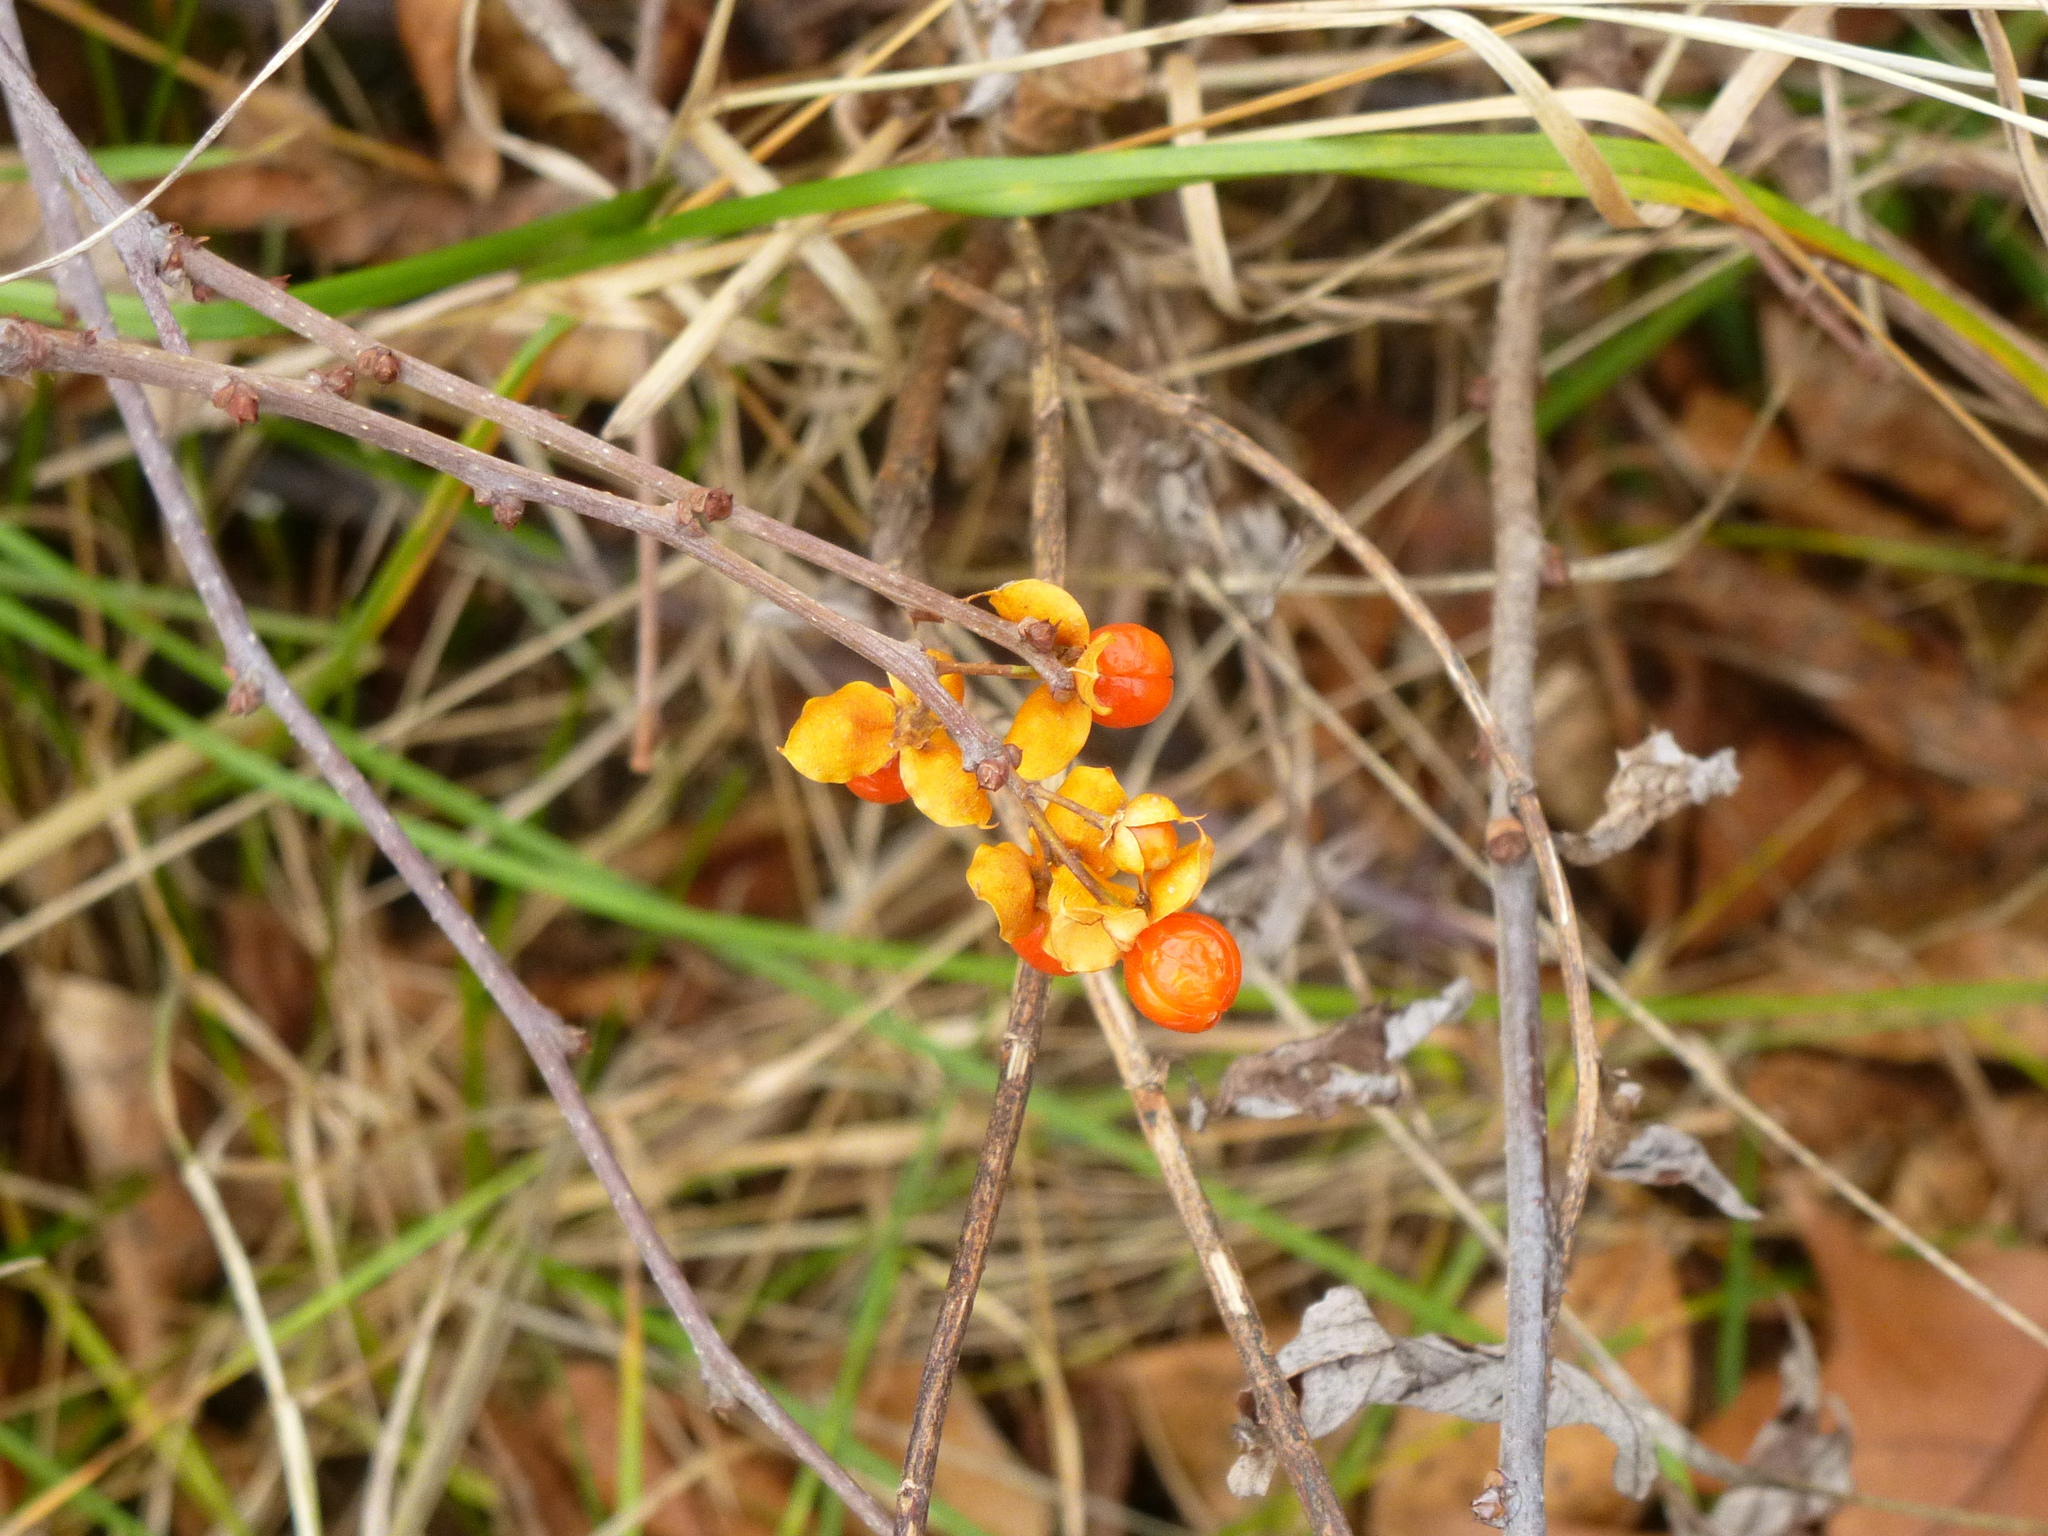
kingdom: Plantae
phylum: Tracheophyta
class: Magnoliopsida
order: Celastrales
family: Celastraceae
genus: Celastrus
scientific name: Celastrus orbiculatus
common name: Oriental bittersweet
